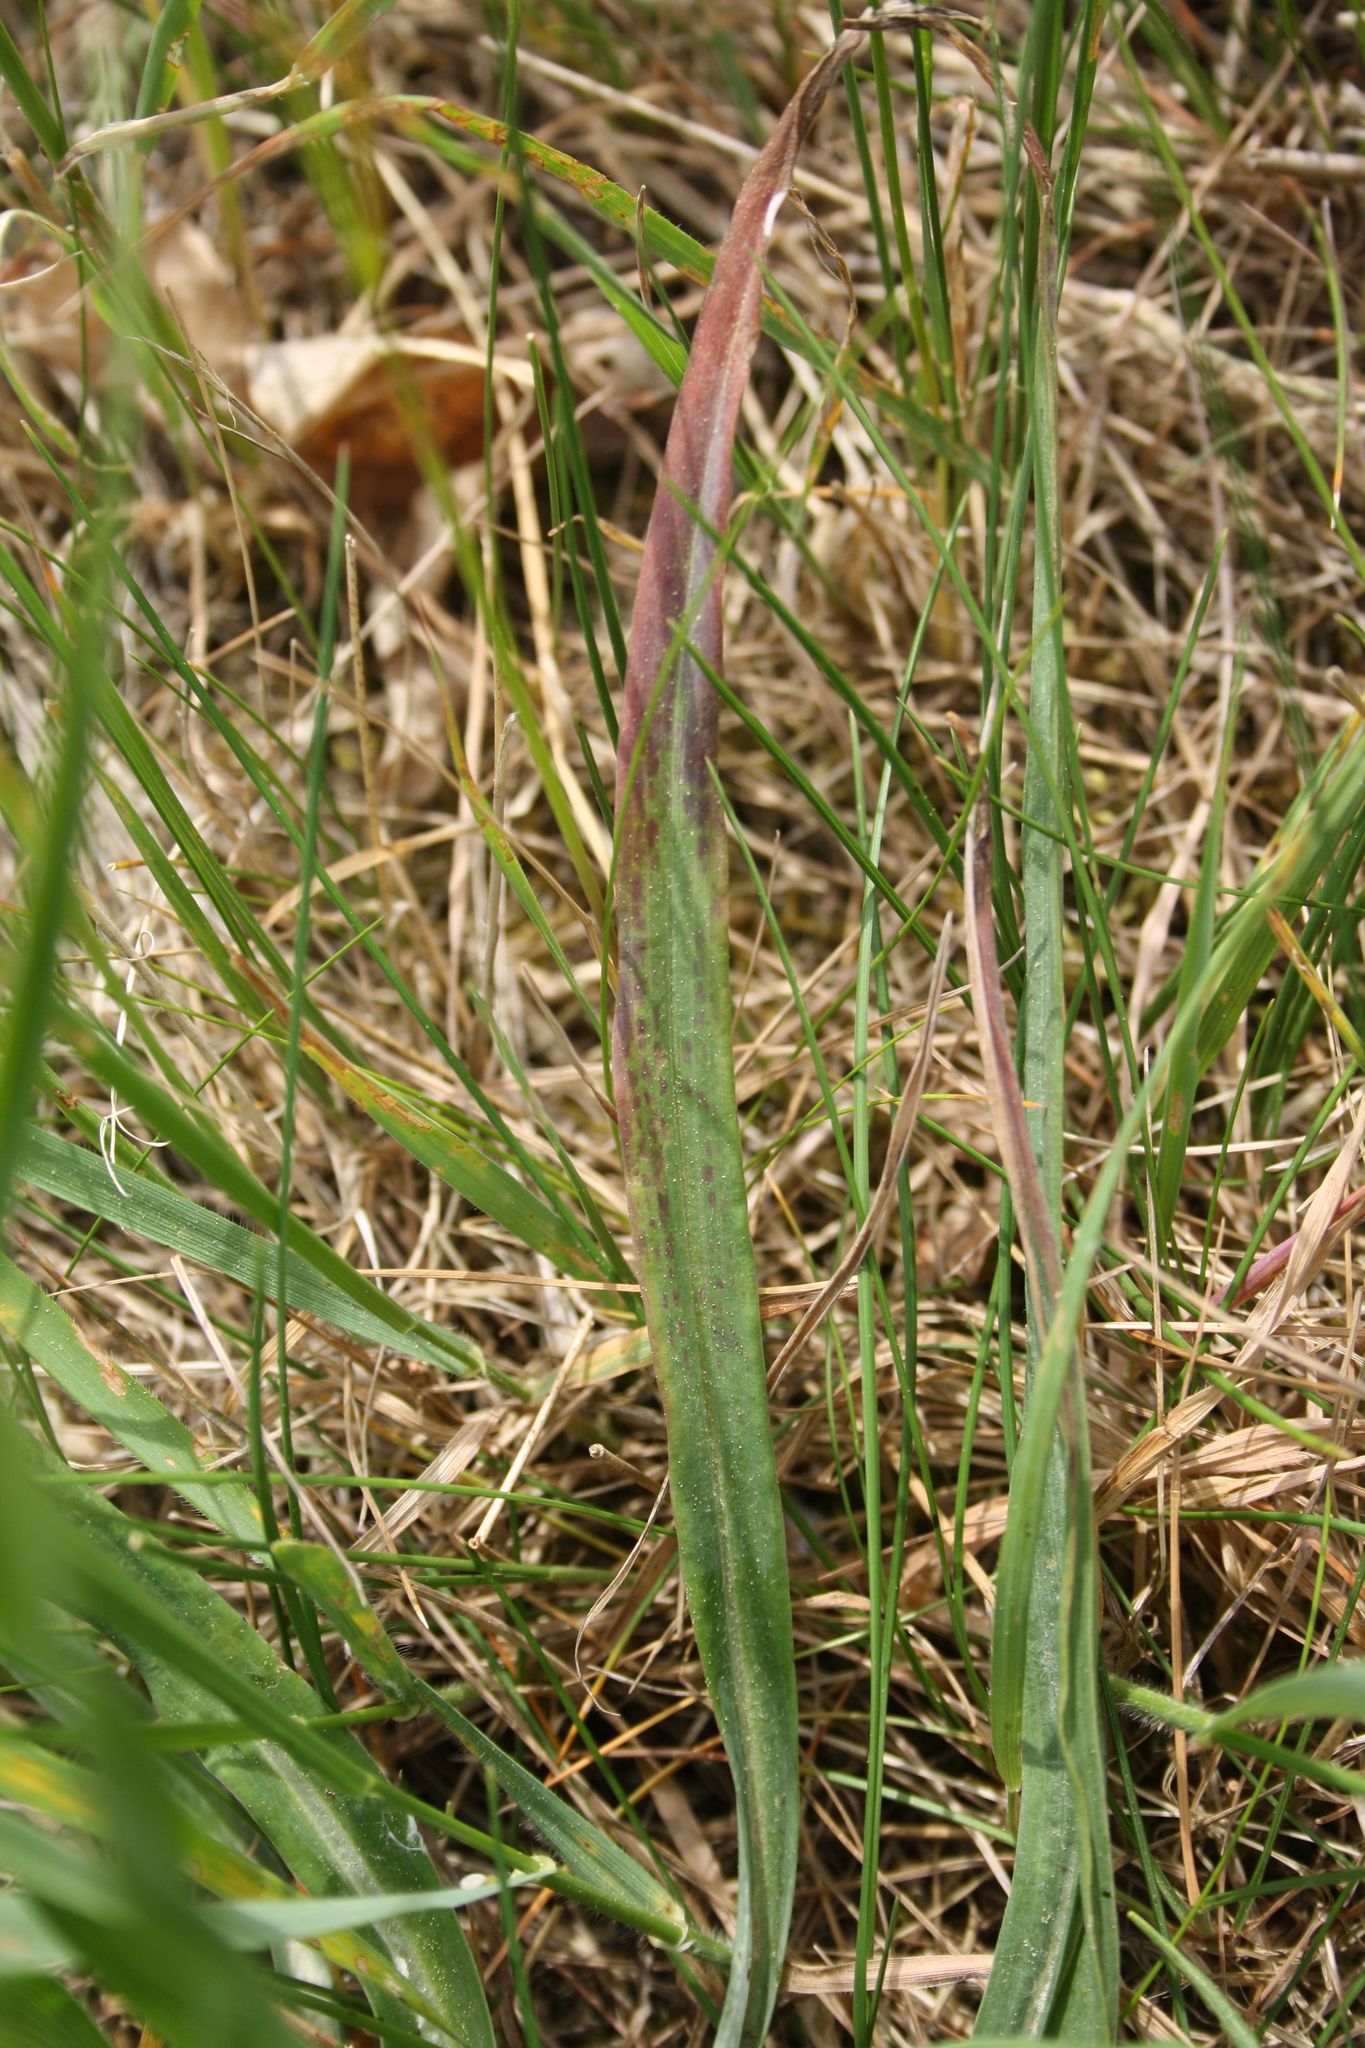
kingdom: Plantae
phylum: Tracheophyta
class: Magnoliopsida
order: Asterales
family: Asteraceae
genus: Tragopogon
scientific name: Tragopogon orientalis
